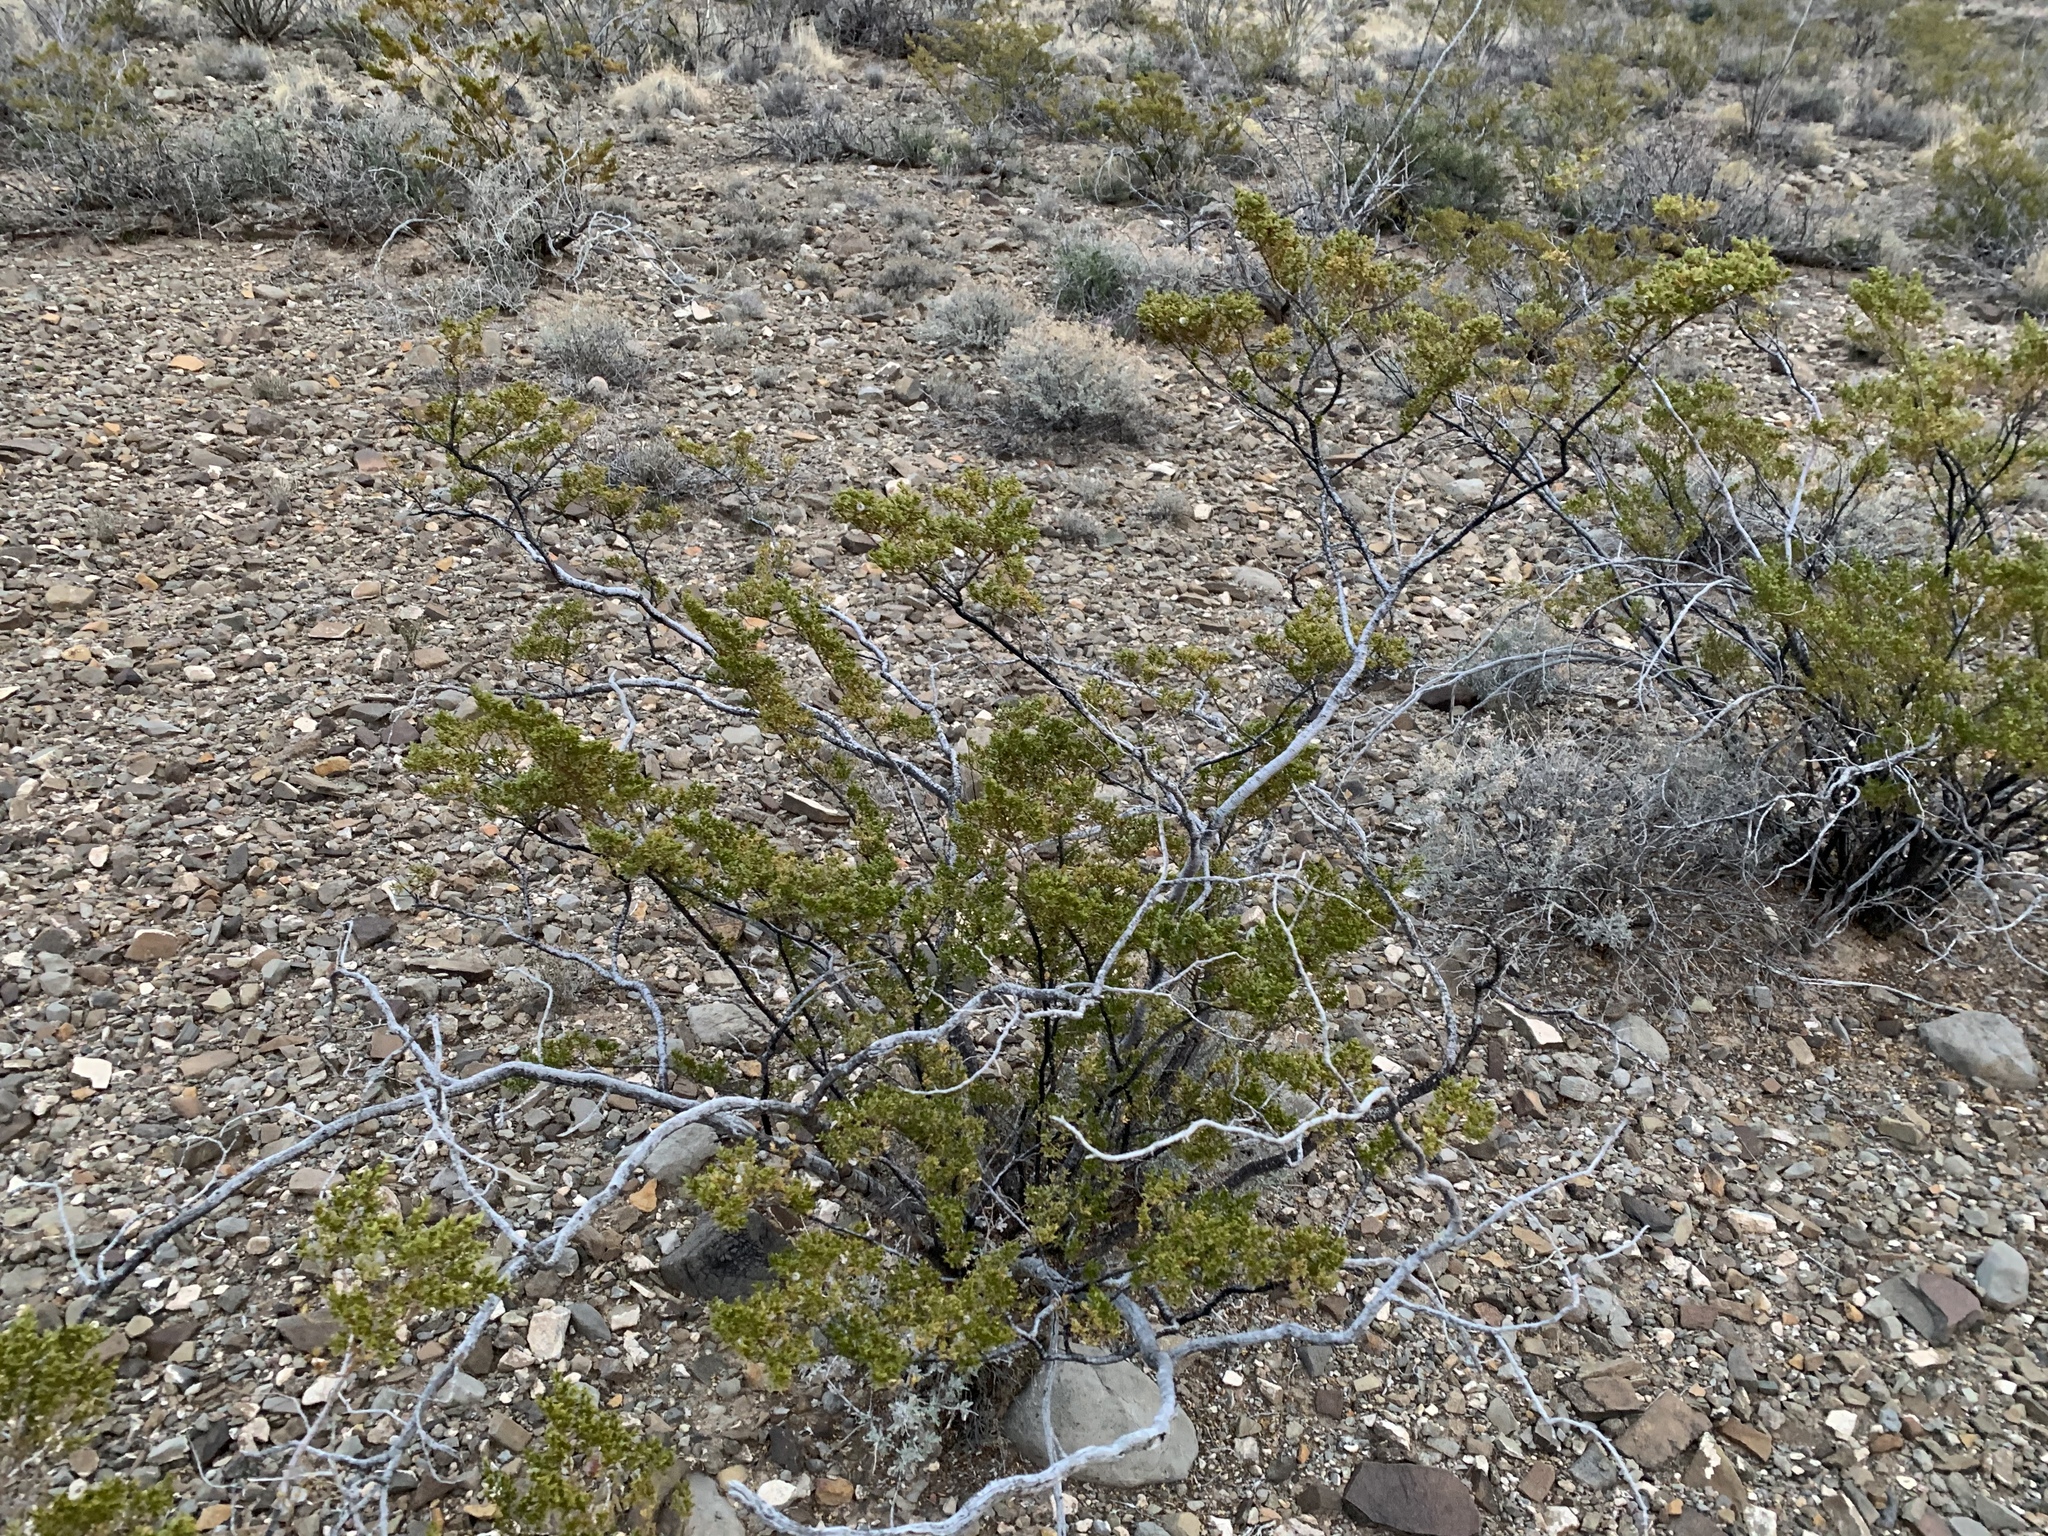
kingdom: Plantae
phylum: Tracheophyta
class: Magnoliopsida
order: Zygophyllales
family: Zygophyllaceae
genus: Larrea
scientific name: Larrea tridentata
